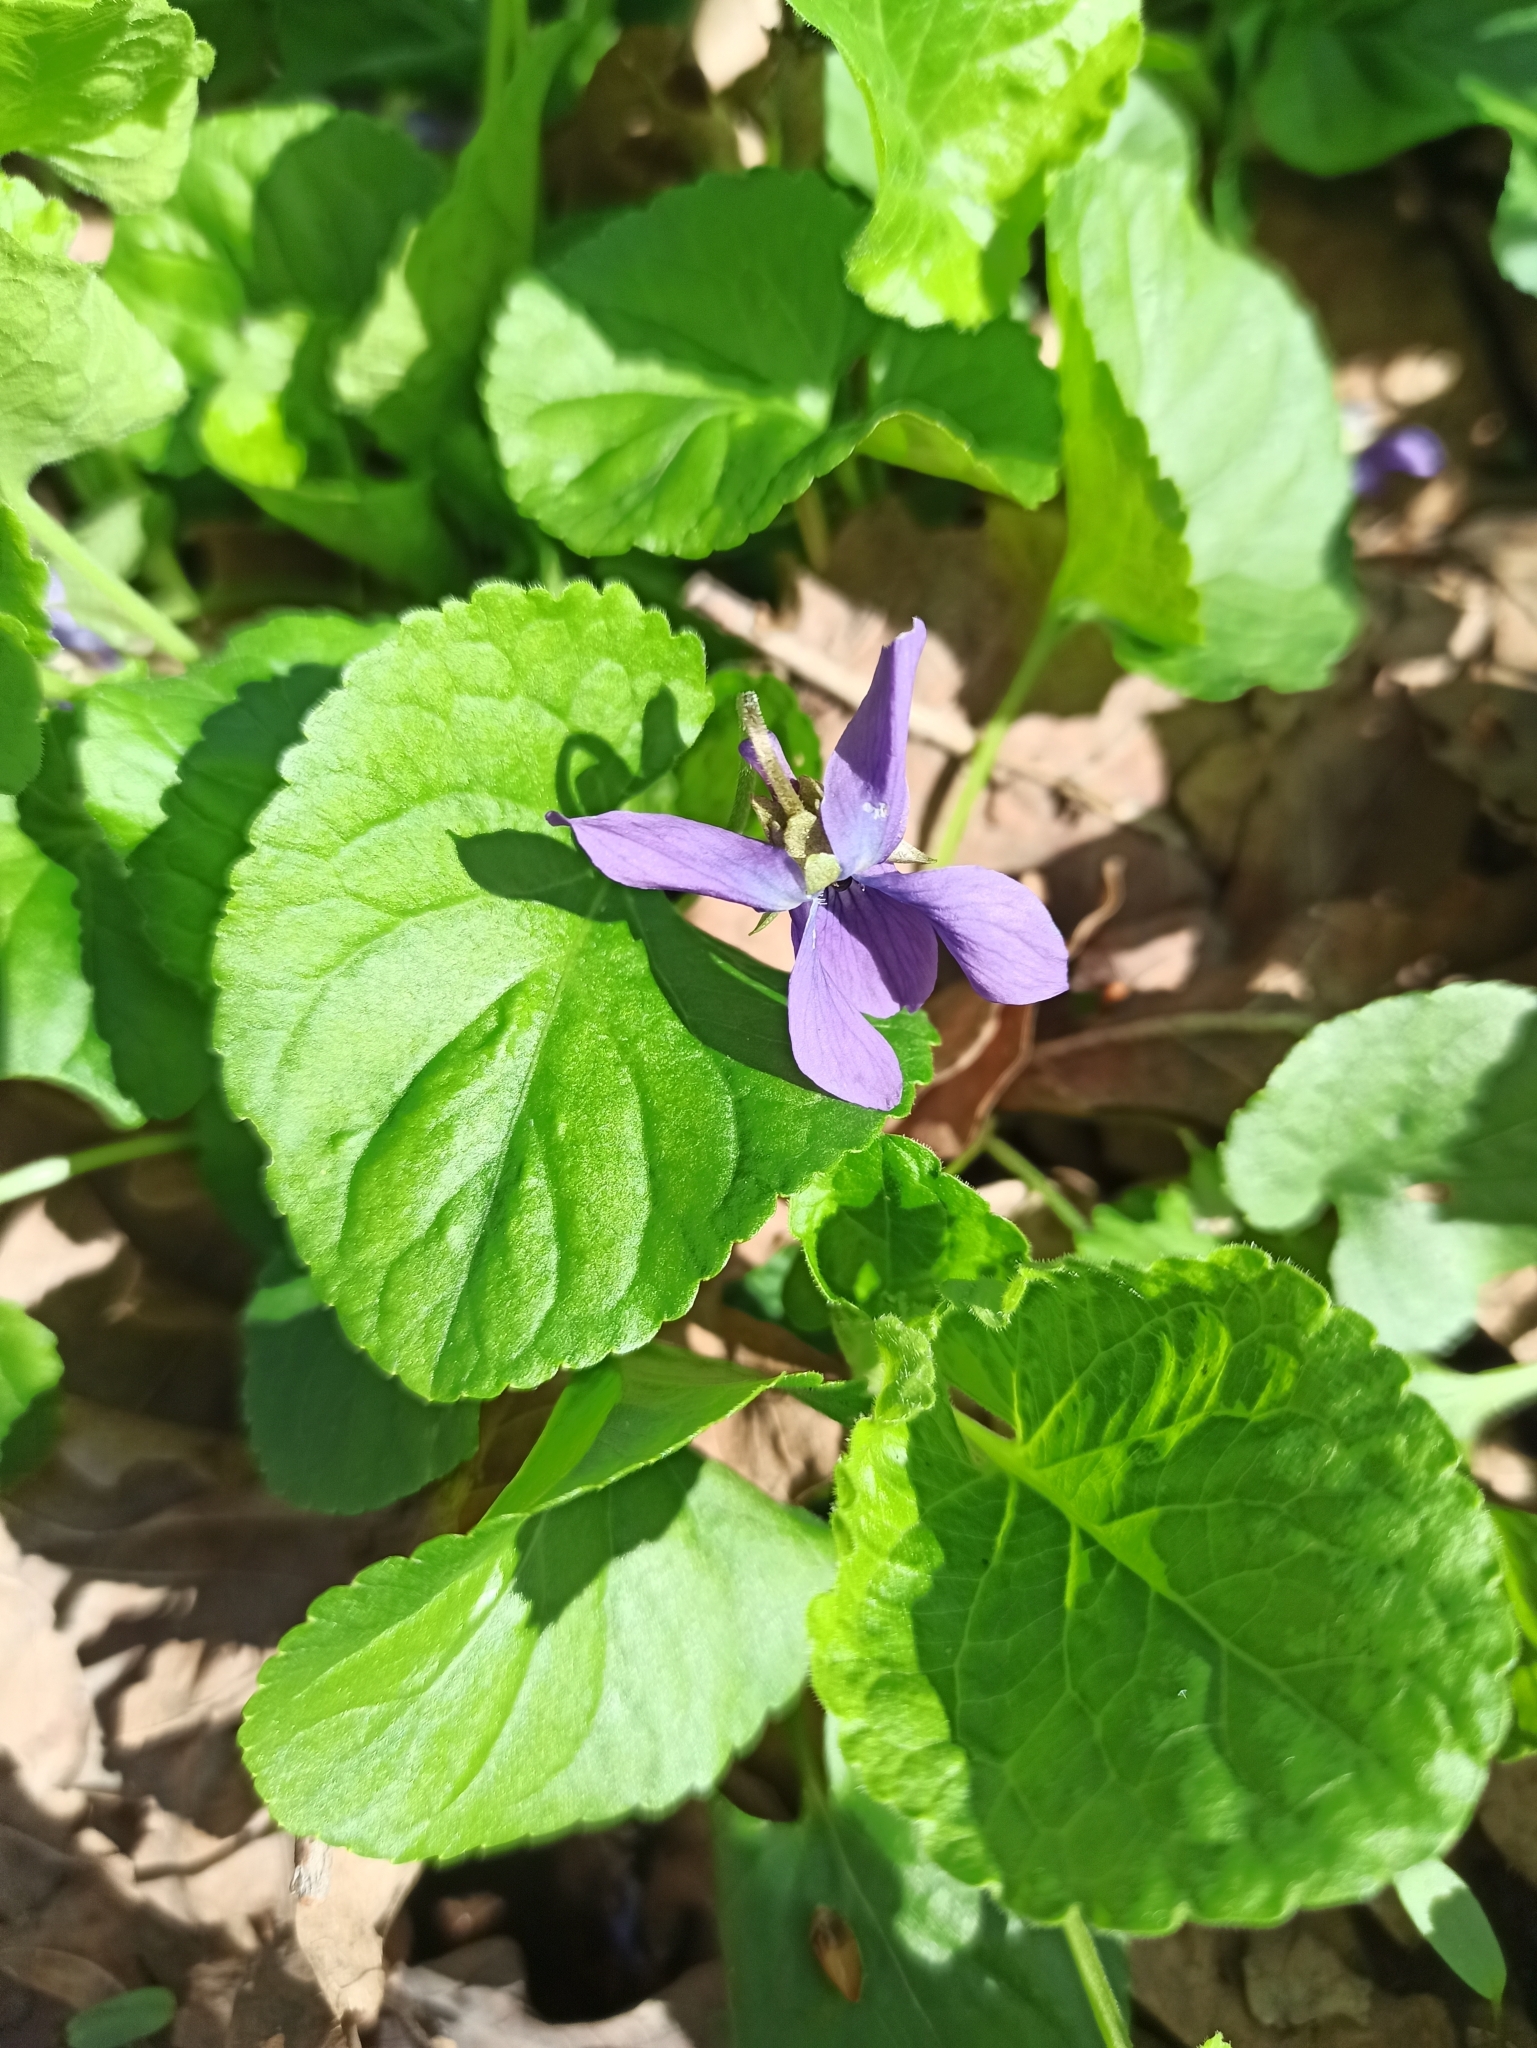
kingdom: Plantae
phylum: Tracheophyta
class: Magnoliopsida
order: Malpighiales
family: Violaceae
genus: Viola
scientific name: Viola odorata
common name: Sweet violet
